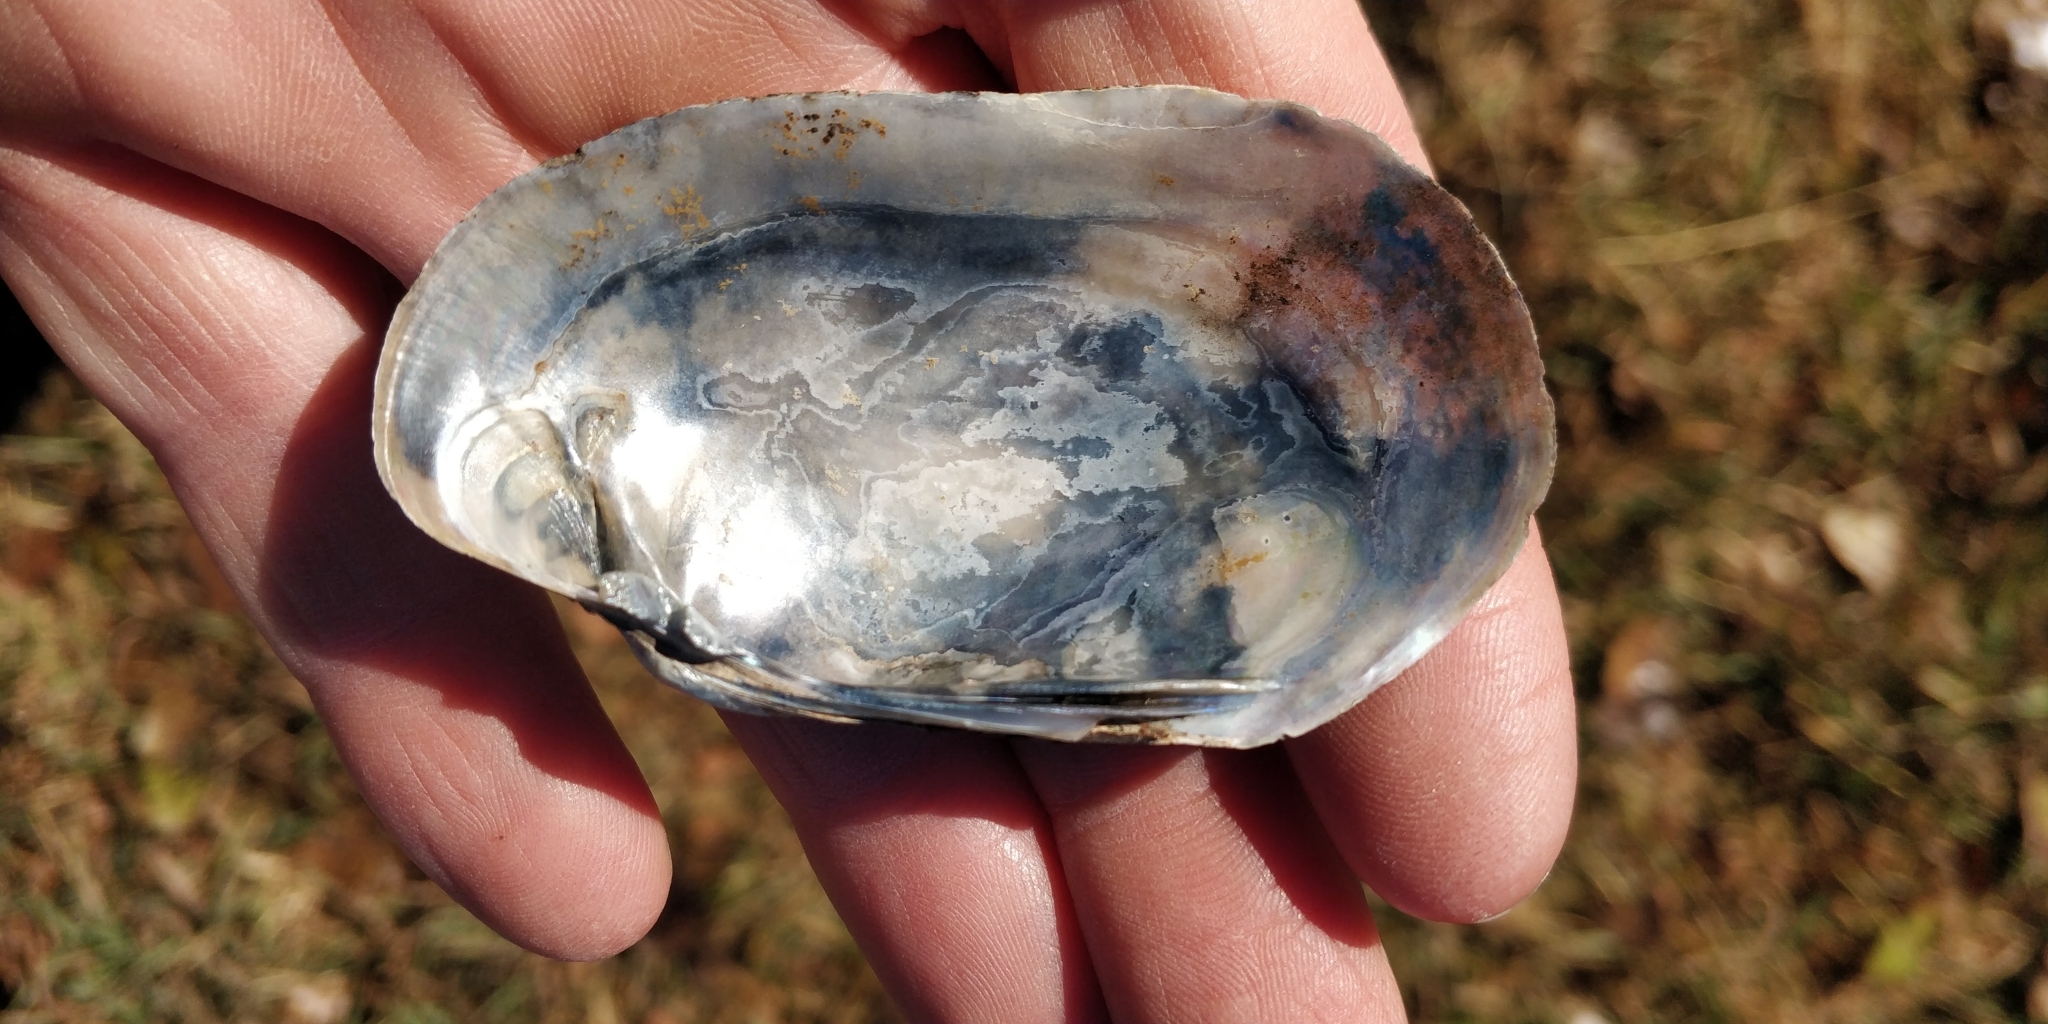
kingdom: Animalia
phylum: Mollusca
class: Bivalvia
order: Unionida
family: Unionidae
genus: Lampsilis
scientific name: Lampsilis siliquoidea
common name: Fatmucket
